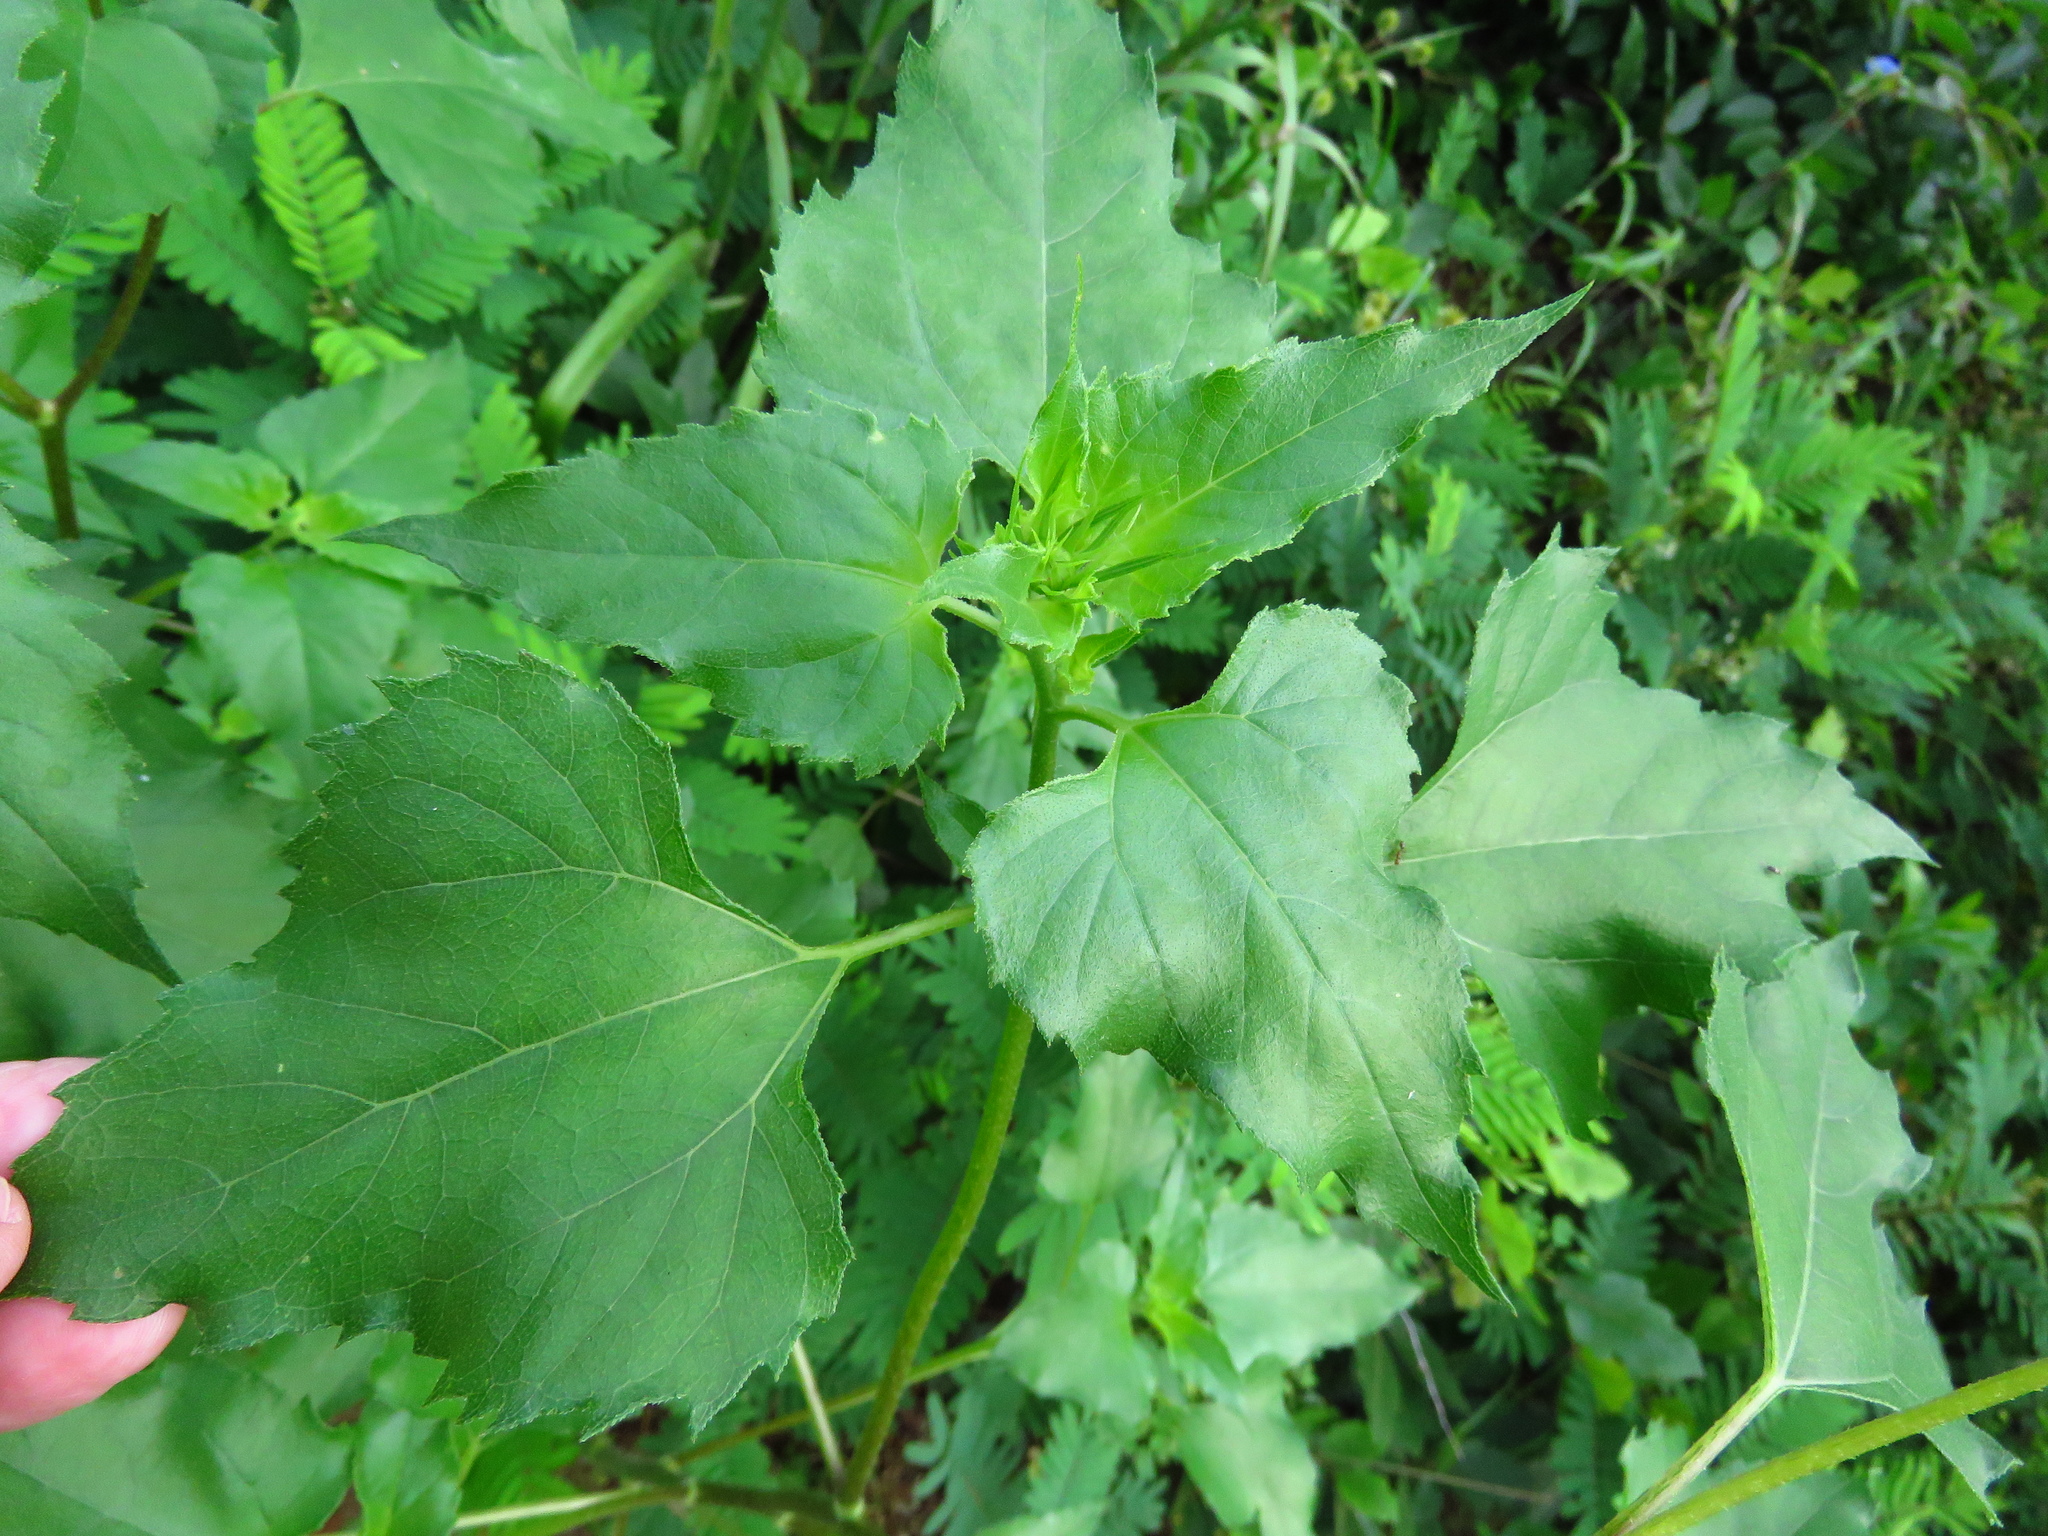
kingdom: Plantae
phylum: Tracheophyta
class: Magnoliopsida
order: Asterales
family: Asteraceae
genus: Helianthus
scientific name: Helianthus debilis
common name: Weak sunflower
